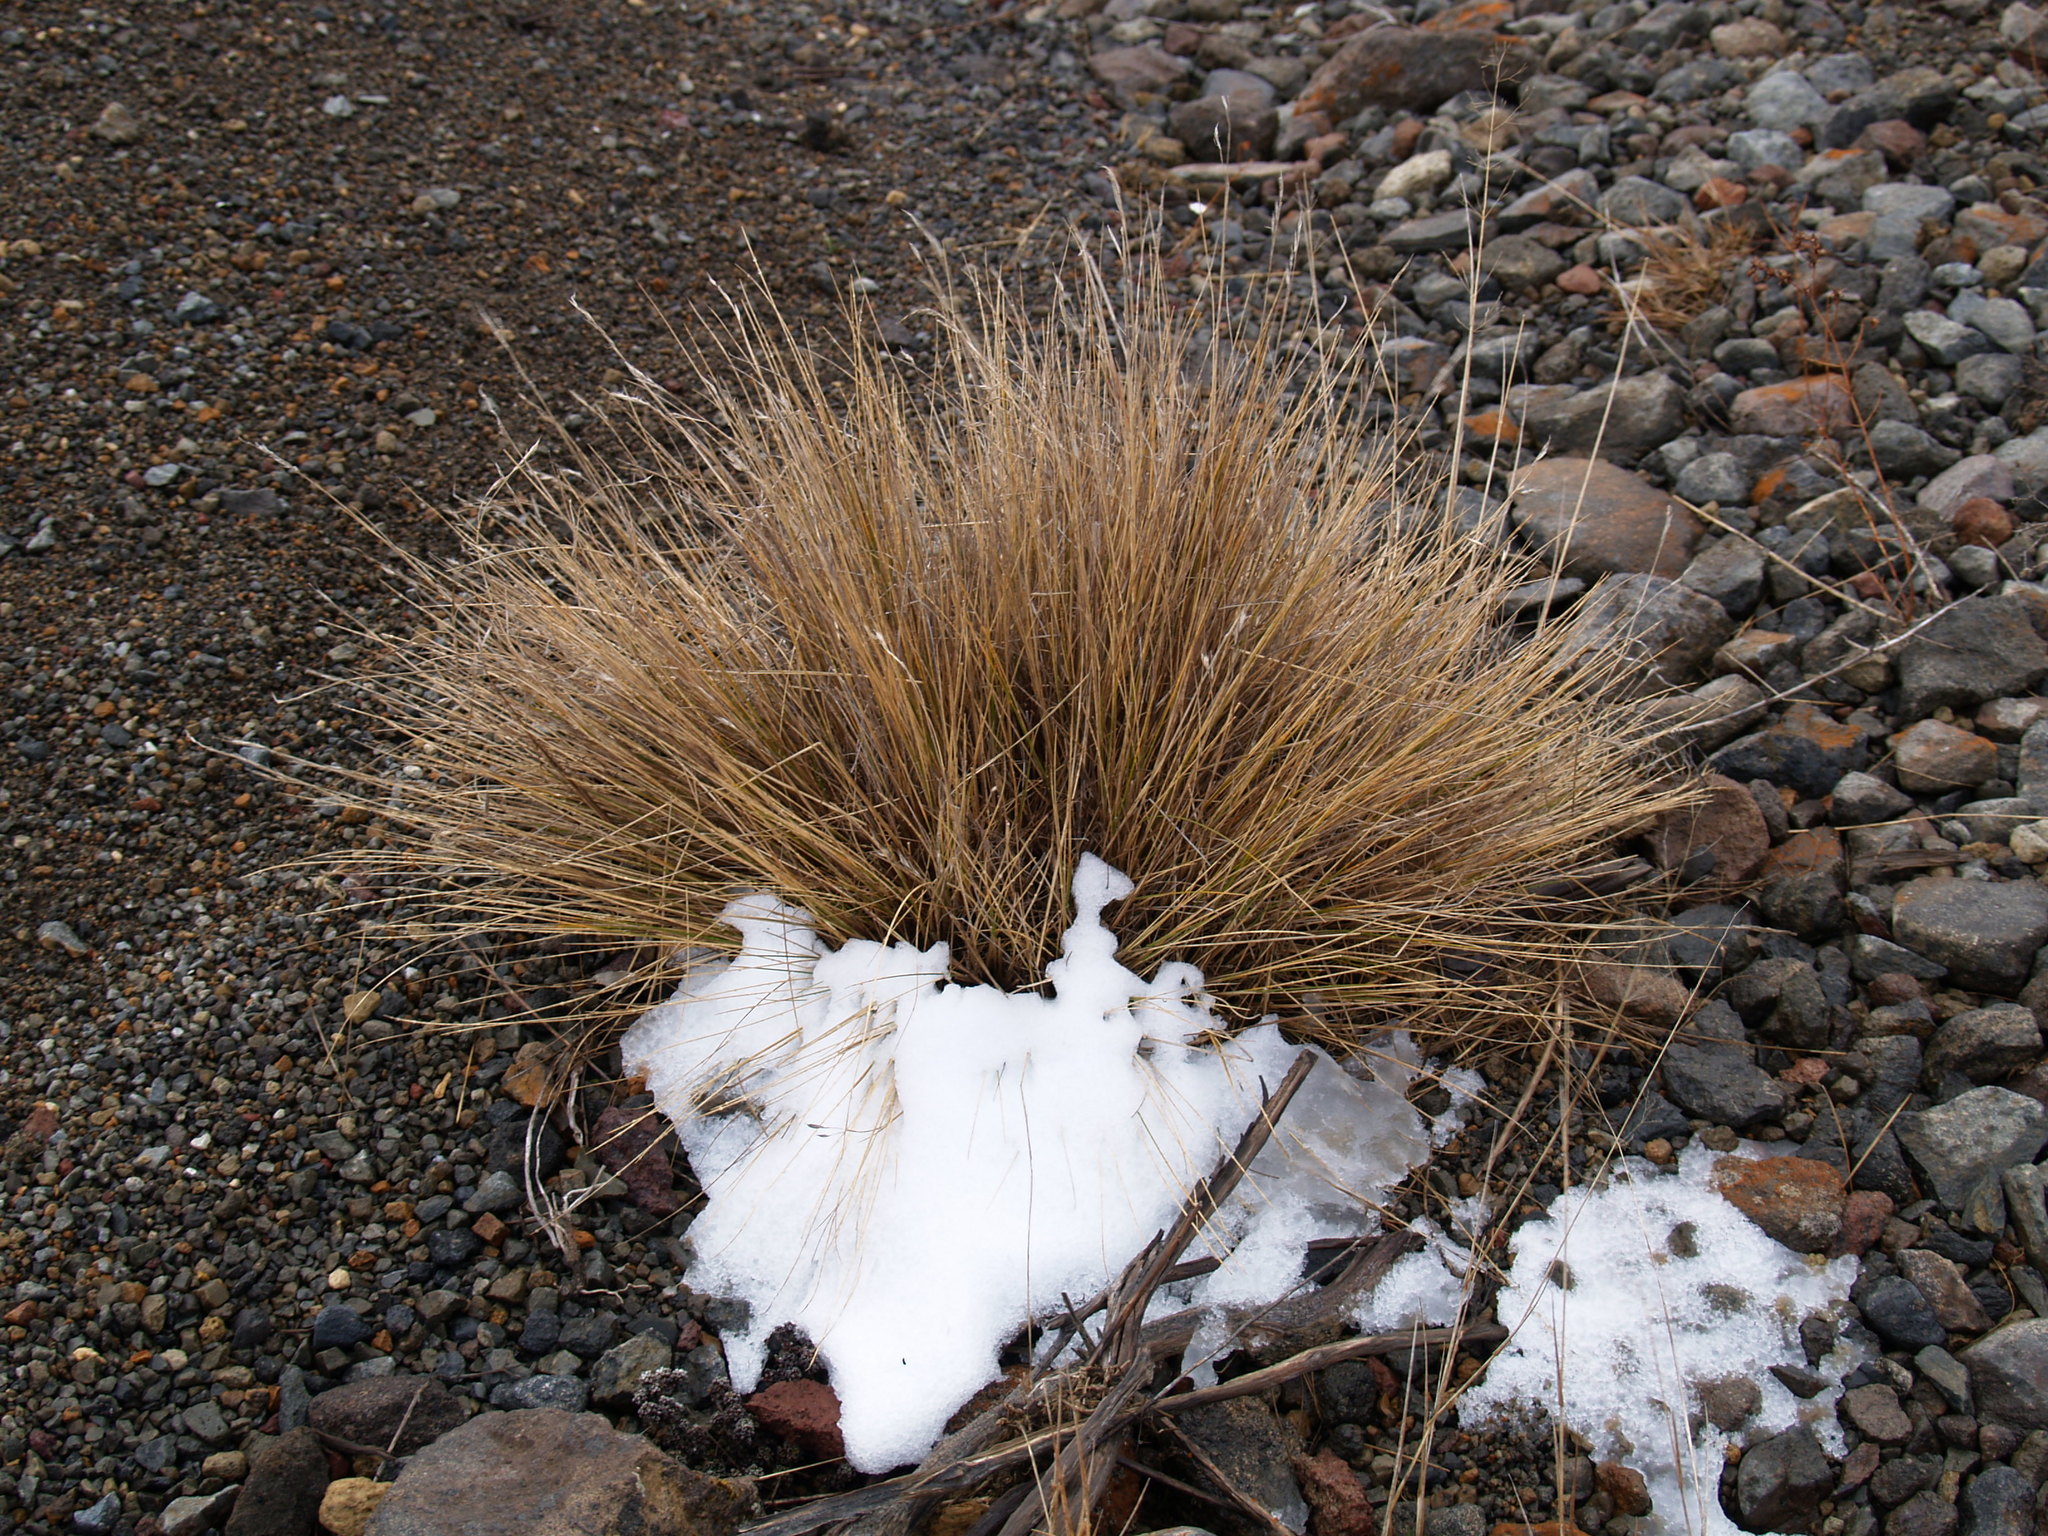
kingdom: Plantae
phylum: Tracheophyta
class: Liliopsida
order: Poales
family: Poaceae
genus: Rytidosperma
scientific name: Rytidosperma setifolium
